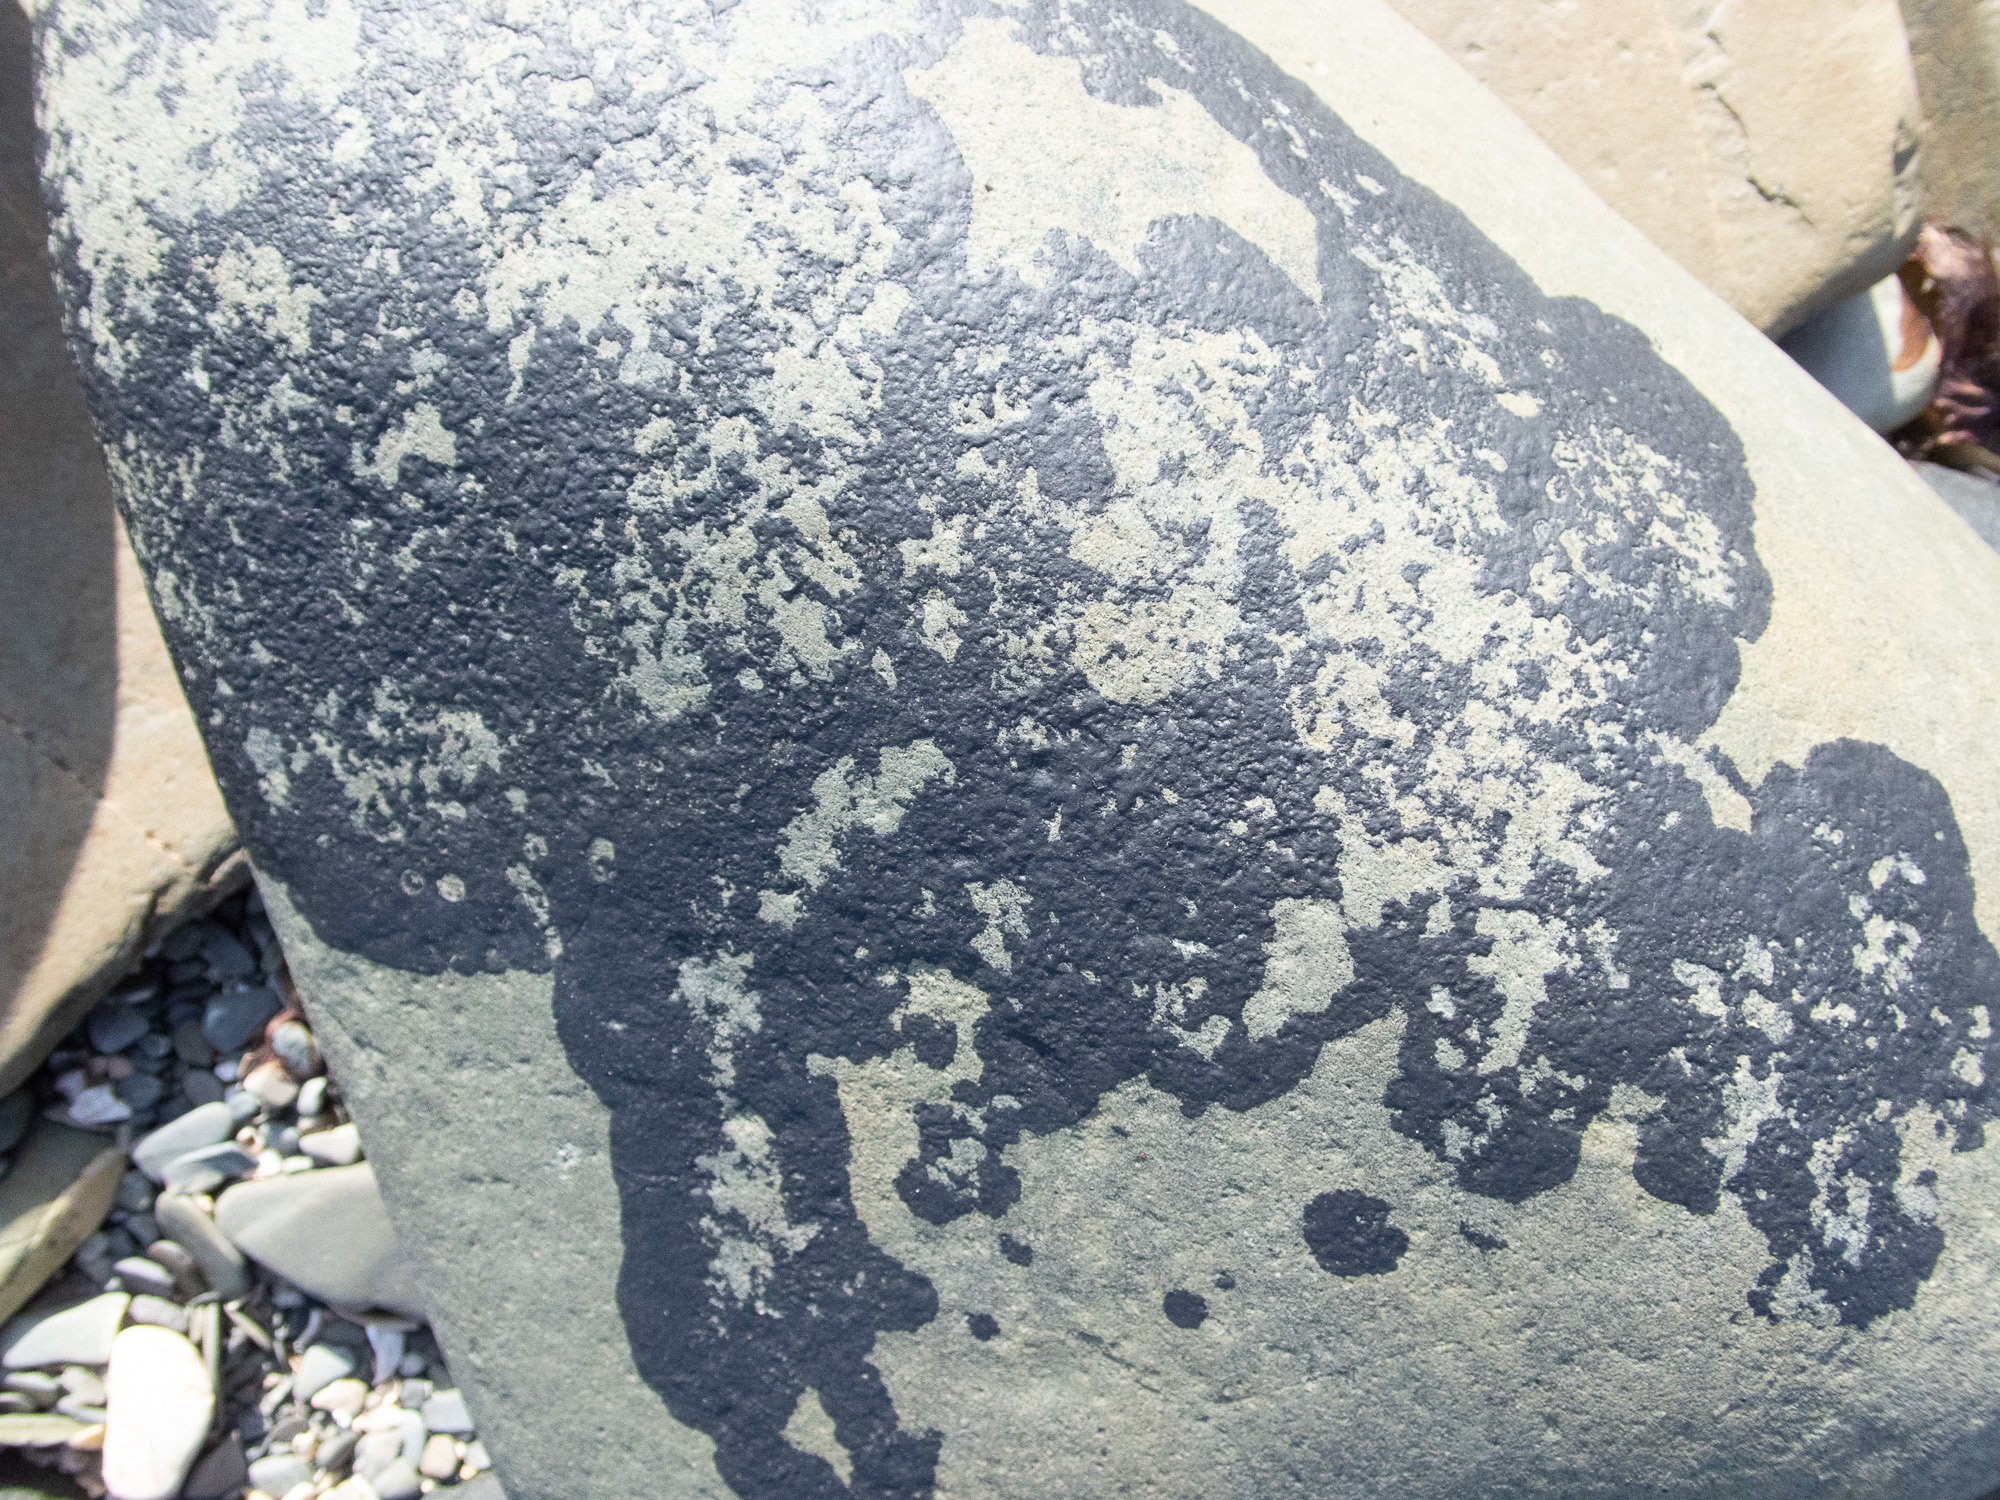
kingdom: Fungi
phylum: Ascomycota
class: Eurotiomycetes
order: Verrucariales
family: Verrucariaceae
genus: Hydropunctaria
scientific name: Hydropunctaria maura
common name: Tar lichen
